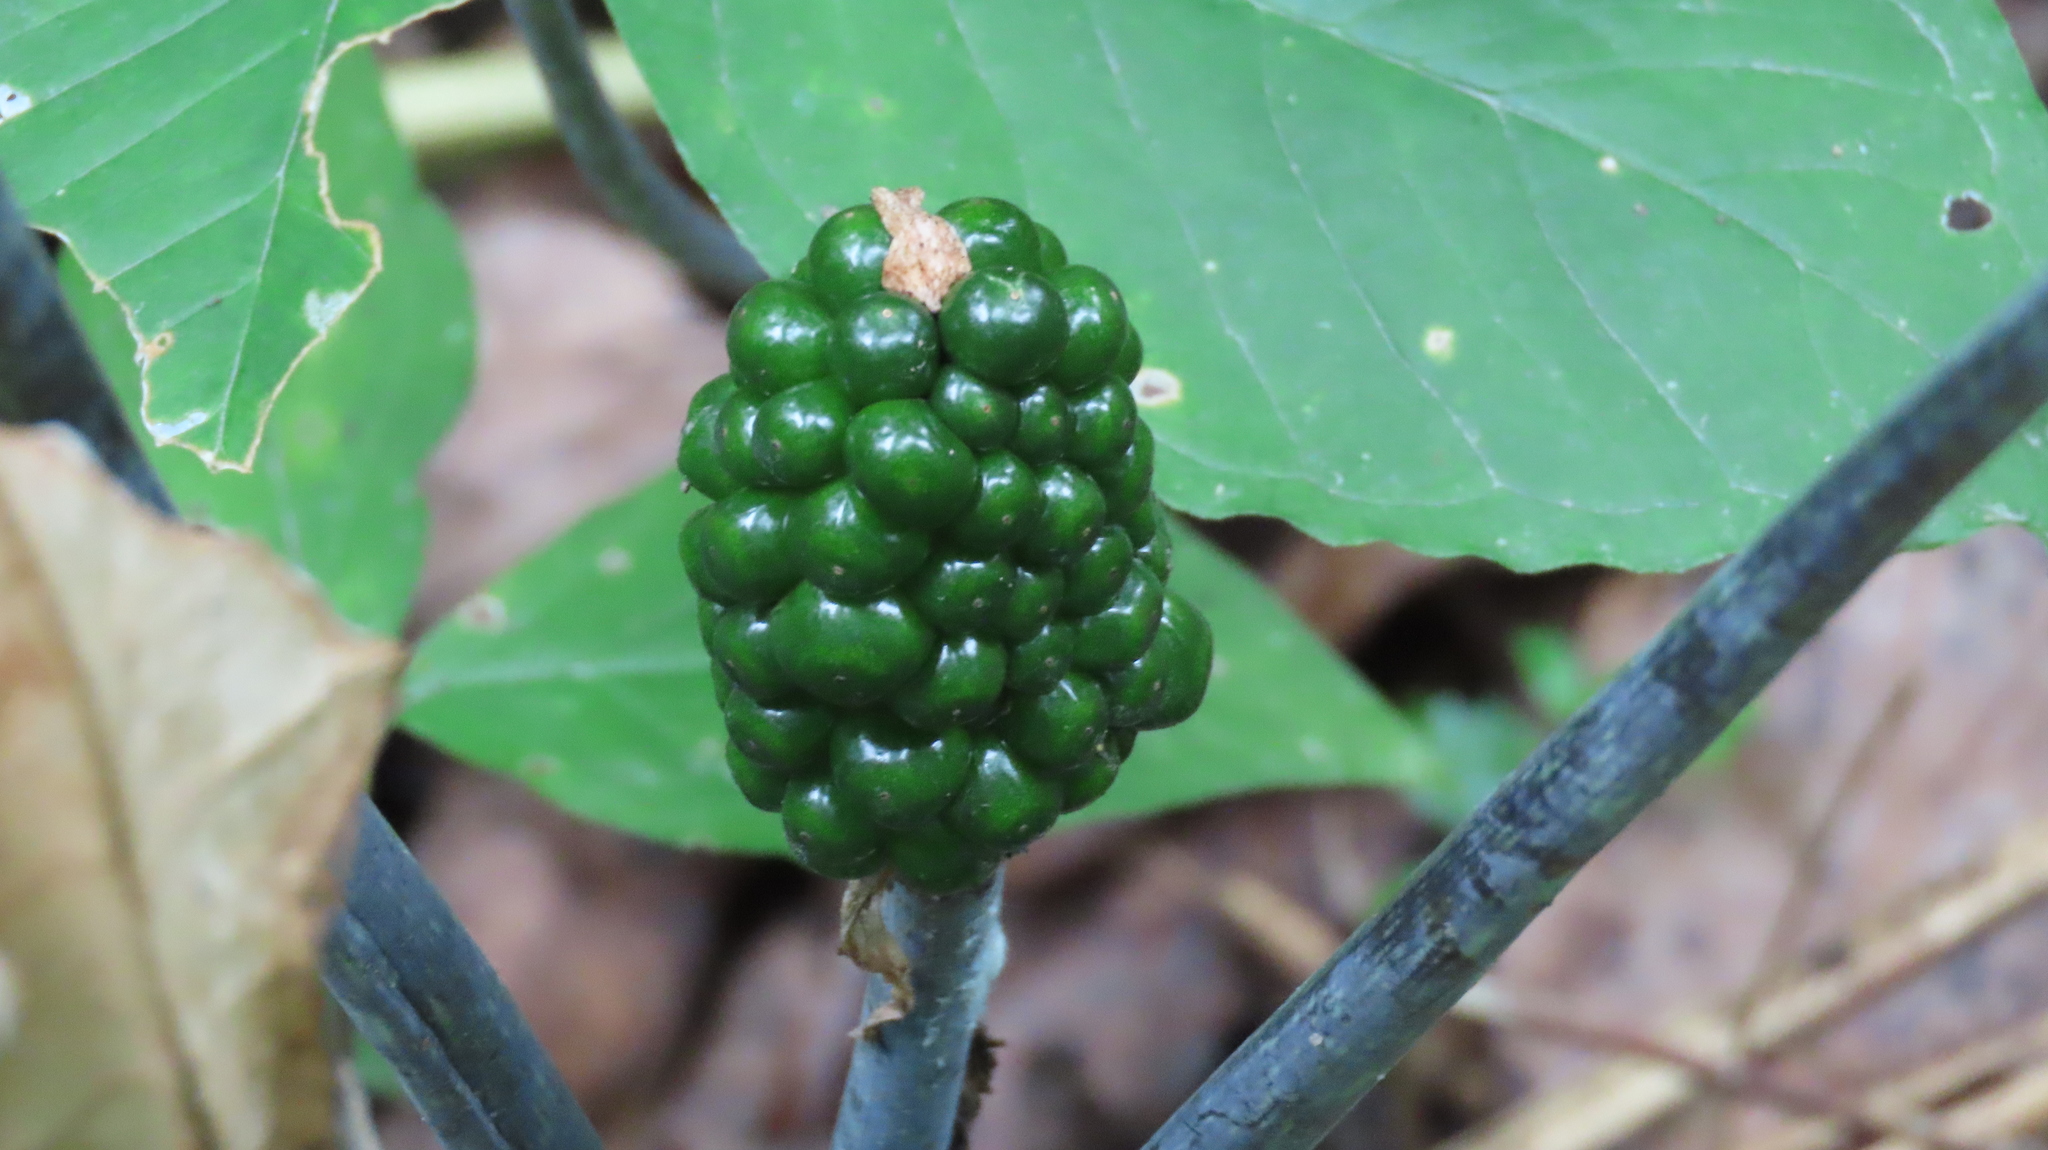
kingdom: Plantae
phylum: Tracheophyta
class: Liliopsida
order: Alismatales
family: Araceae
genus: Arisaema
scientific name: Arisaema triphyllum
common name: Jack-in-the-pulpit
